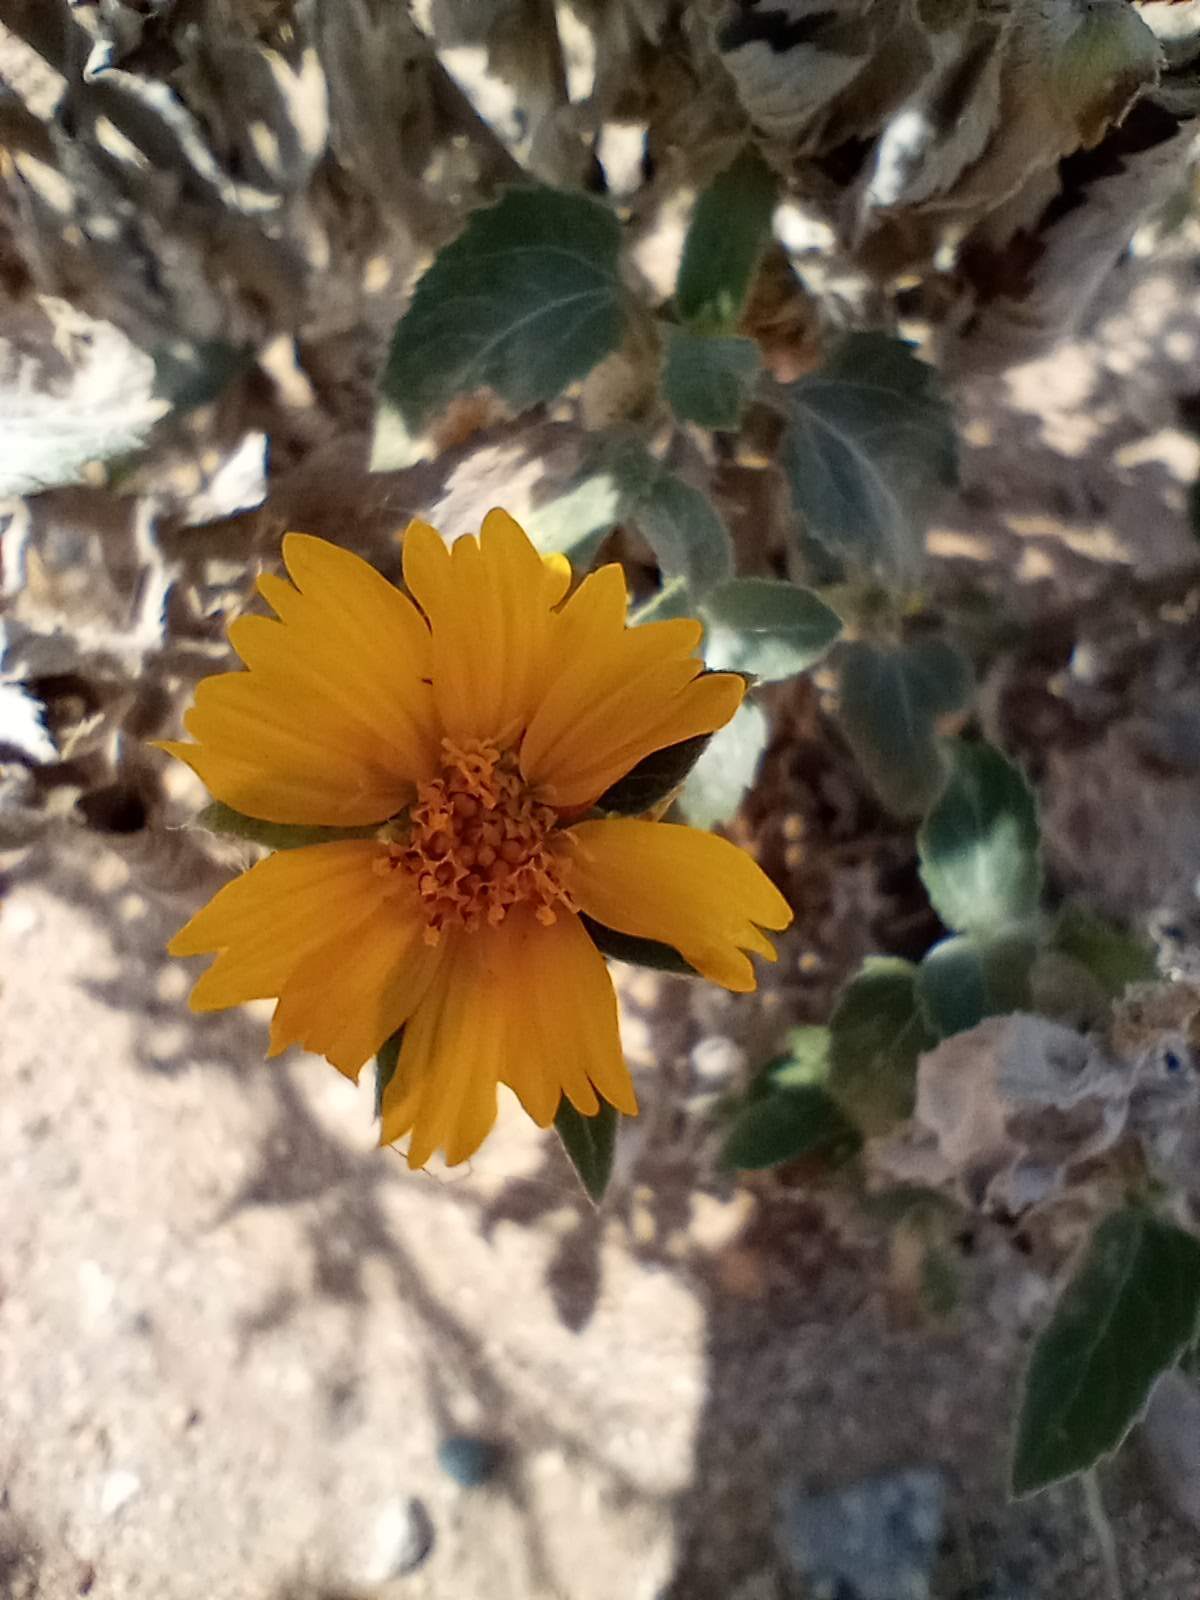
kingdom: Plantae
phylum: Tracheophyta
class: Magnoliopsida
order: Asterales
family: Asteraceae
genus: Encelia
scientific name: Encelia farinosa
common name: Brittlebush
